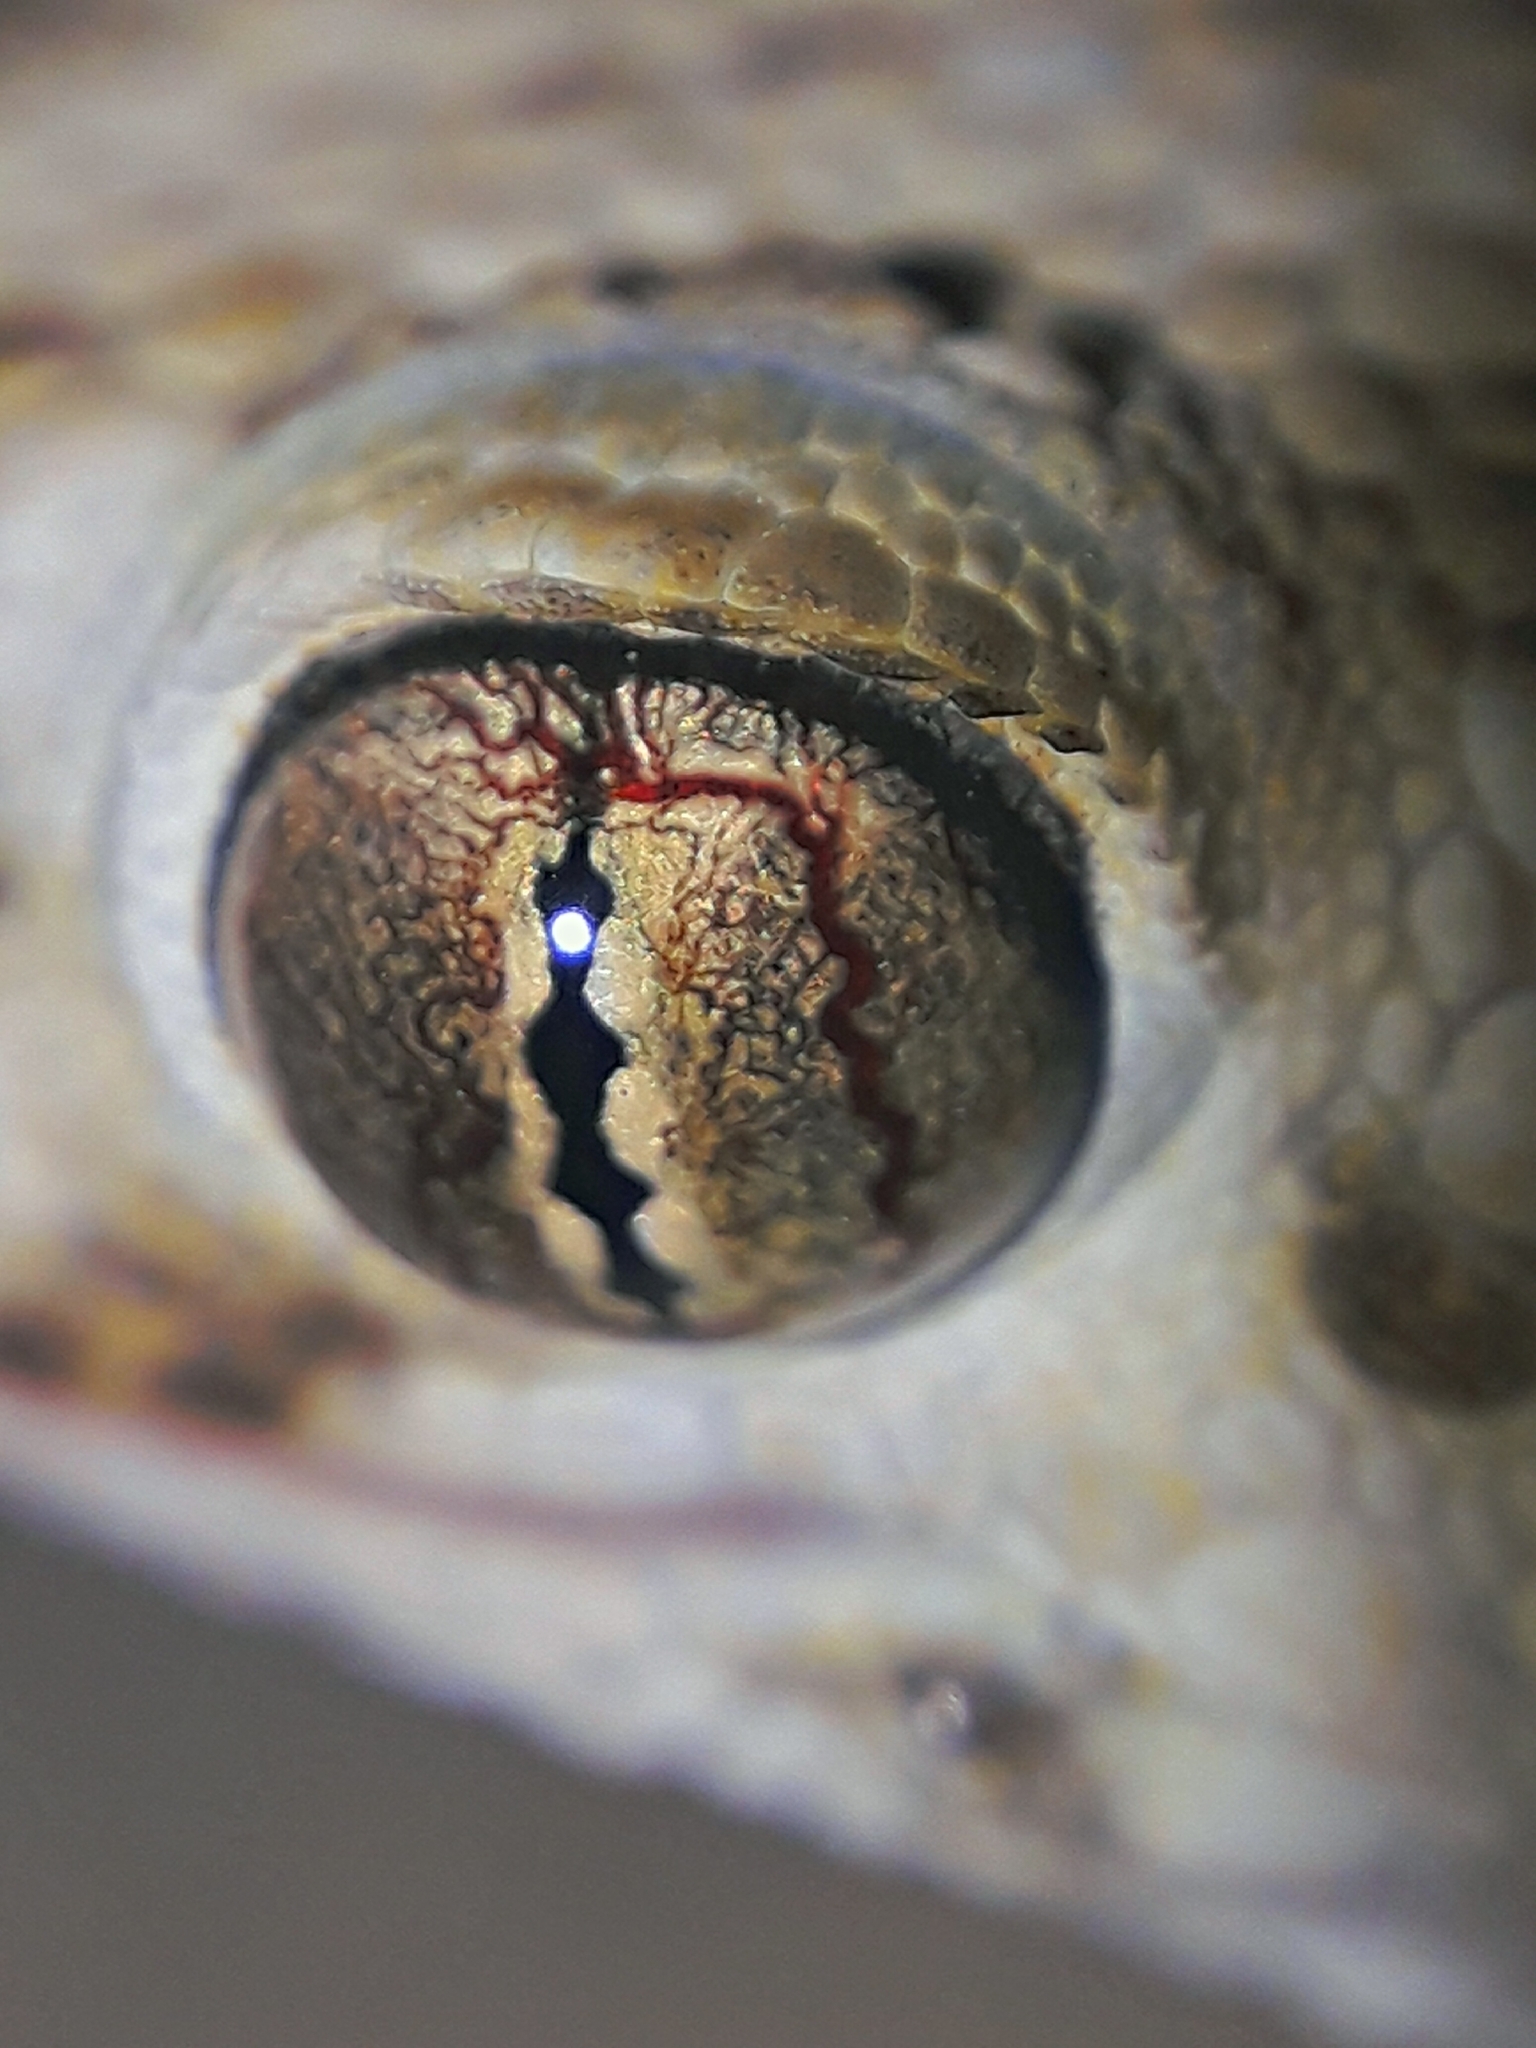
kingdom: Animalia
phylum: Chordata
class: Squamata
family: Gekkonidae
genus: Tenuidactylus
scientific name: Tenuidactylus caspius
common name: Caspian bent-toed gecko
